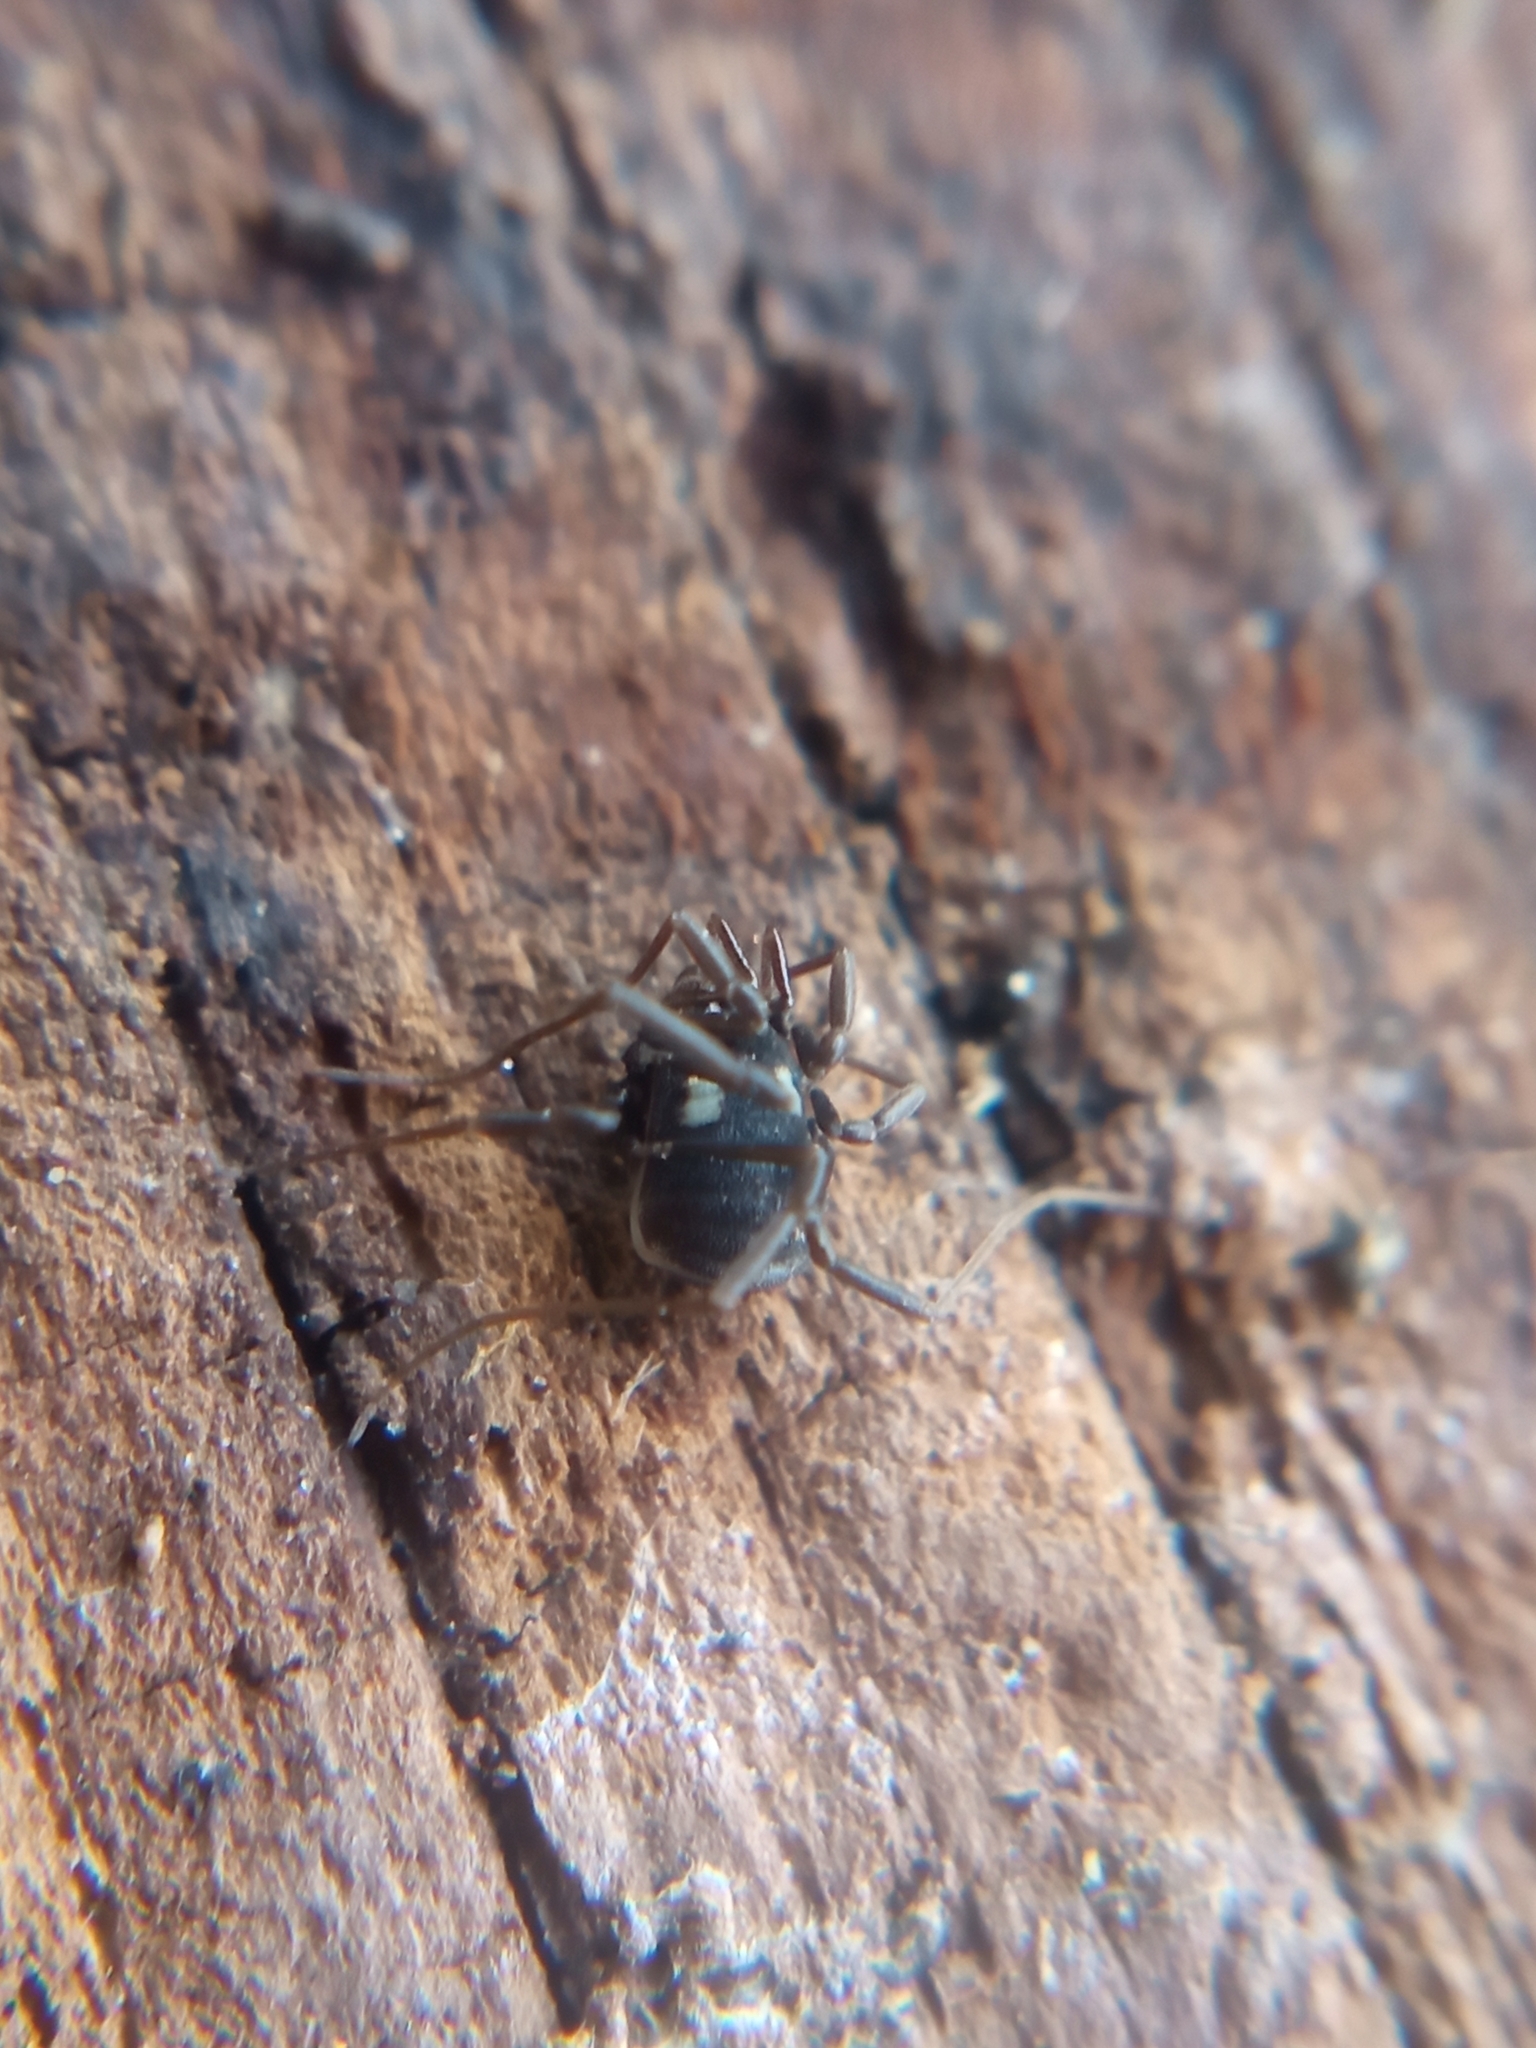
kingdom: Animalia
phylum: Arthropoda
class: Arachnida
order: Opiliones
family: Nemastomatidae
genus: Nemastoma
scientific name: Nemastoma lugubre
